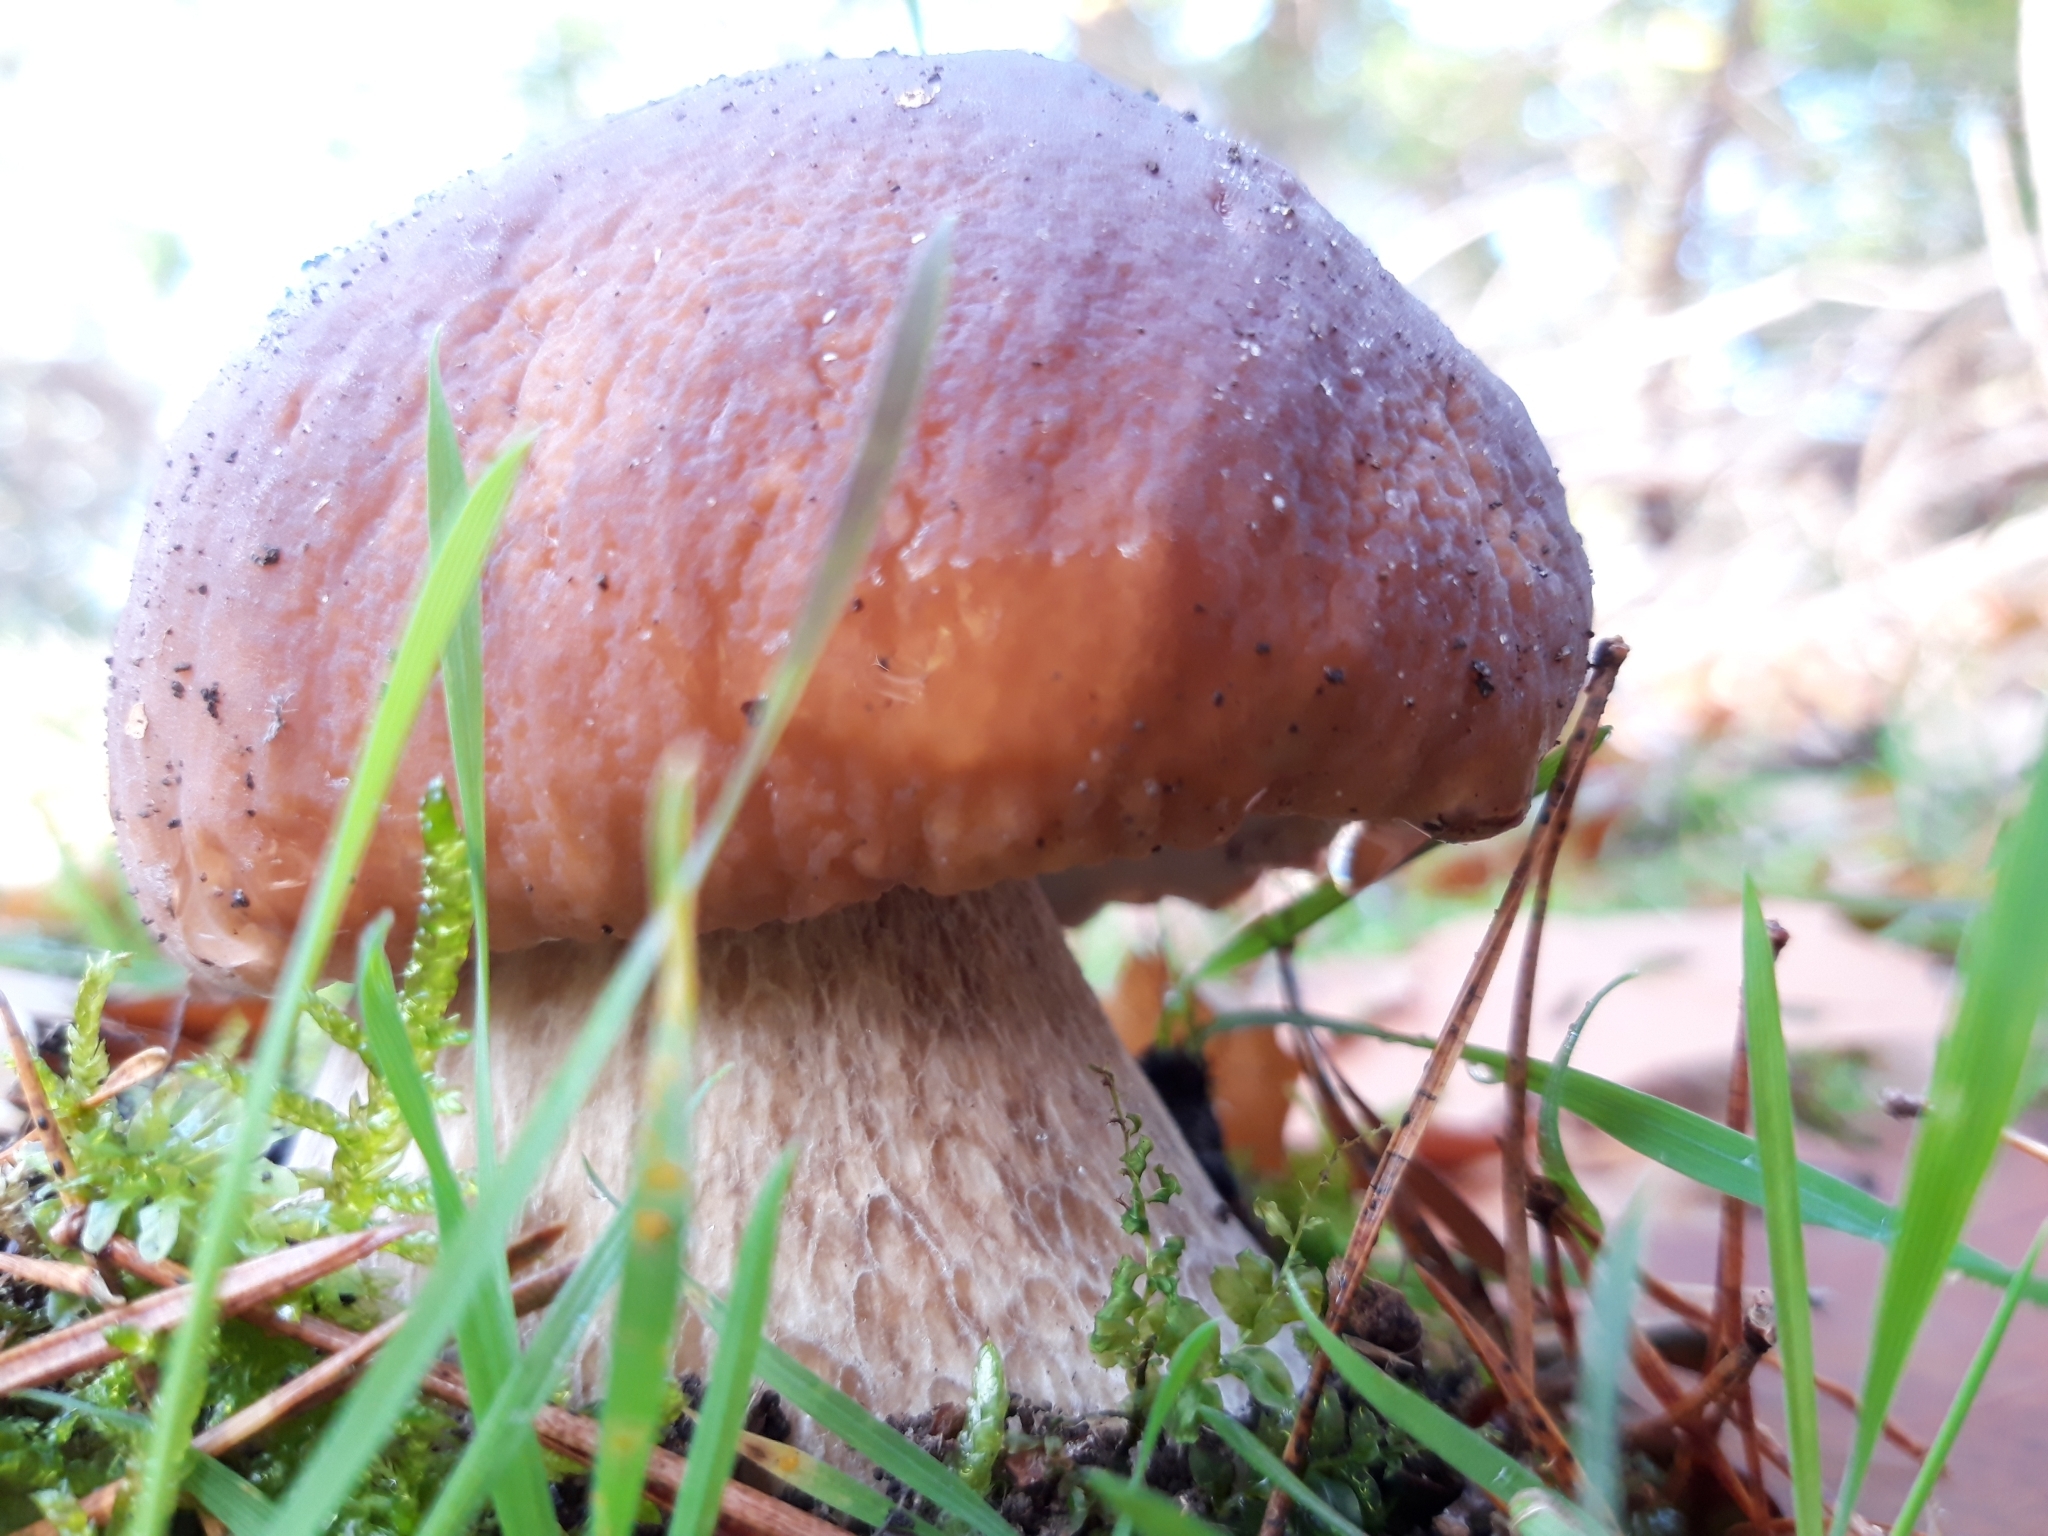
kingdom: Fungi
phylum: Basidiomycota
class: Agaricomycetes
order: Boletales
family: Boletaceae
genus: Boletus
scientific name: Boletus edulis
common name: Cep
